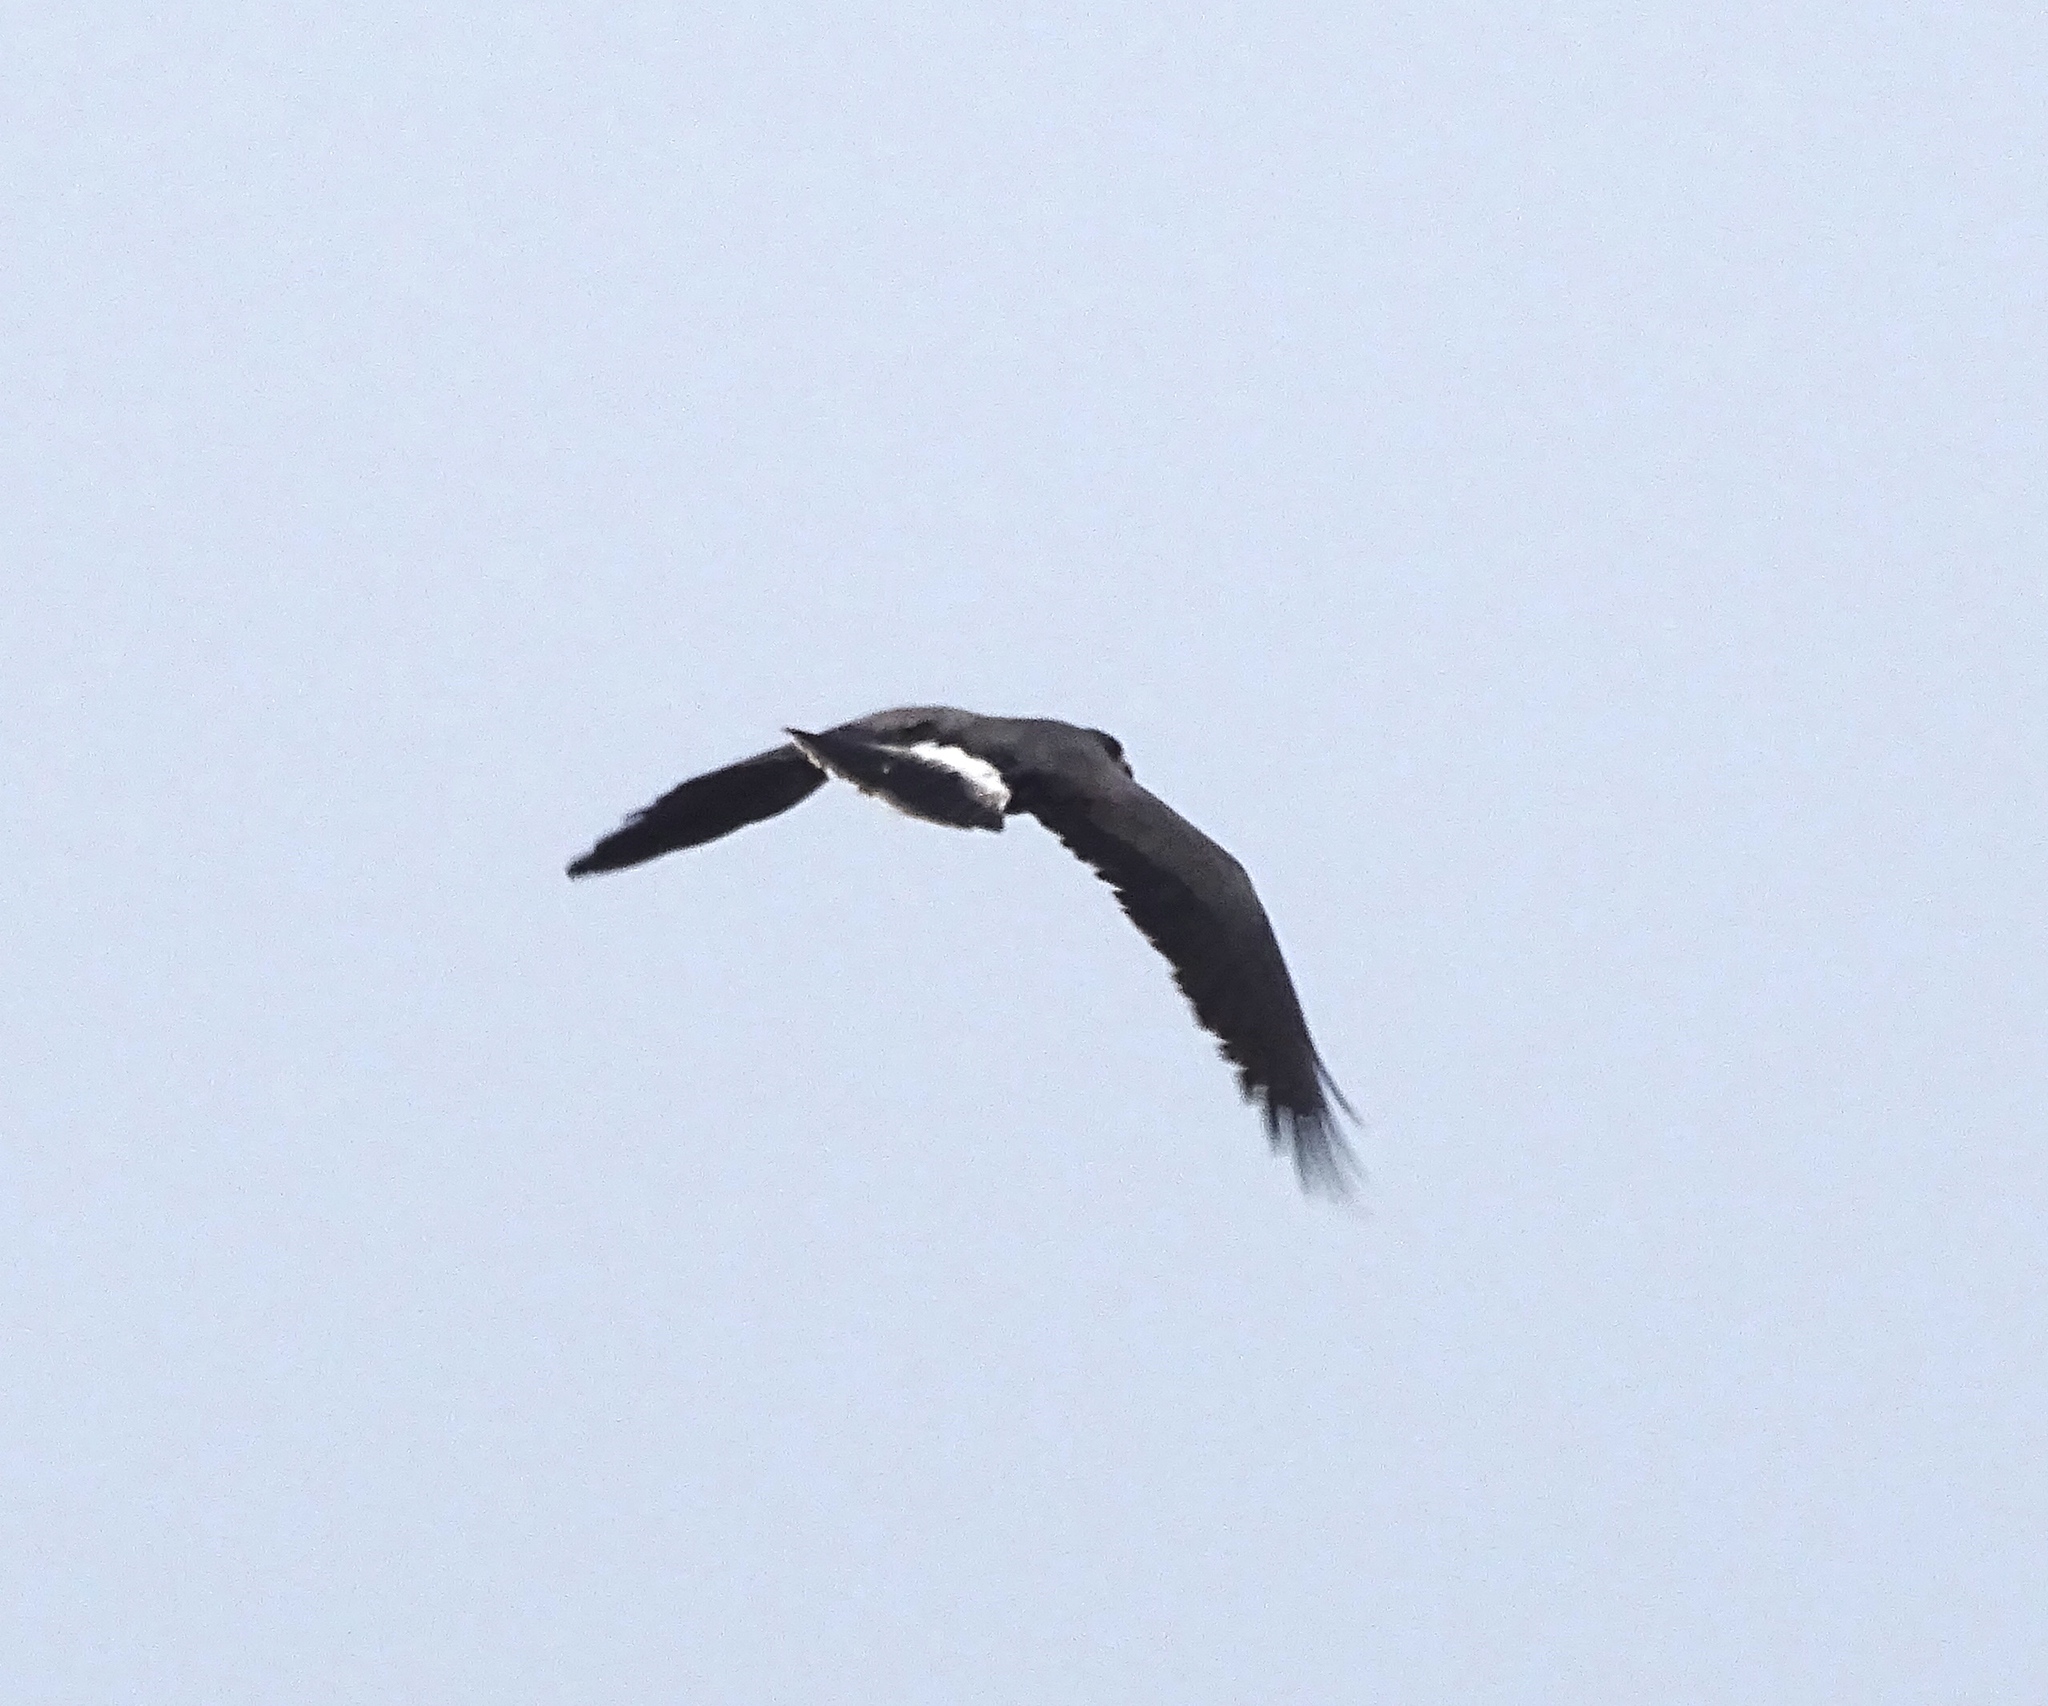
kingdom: Animalia
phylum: Chordata
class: Aves
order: Accipitriformes
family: Accipitridae
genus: Rostrhamus
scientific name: Rostrhamus sociabilis
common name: Snail kite
